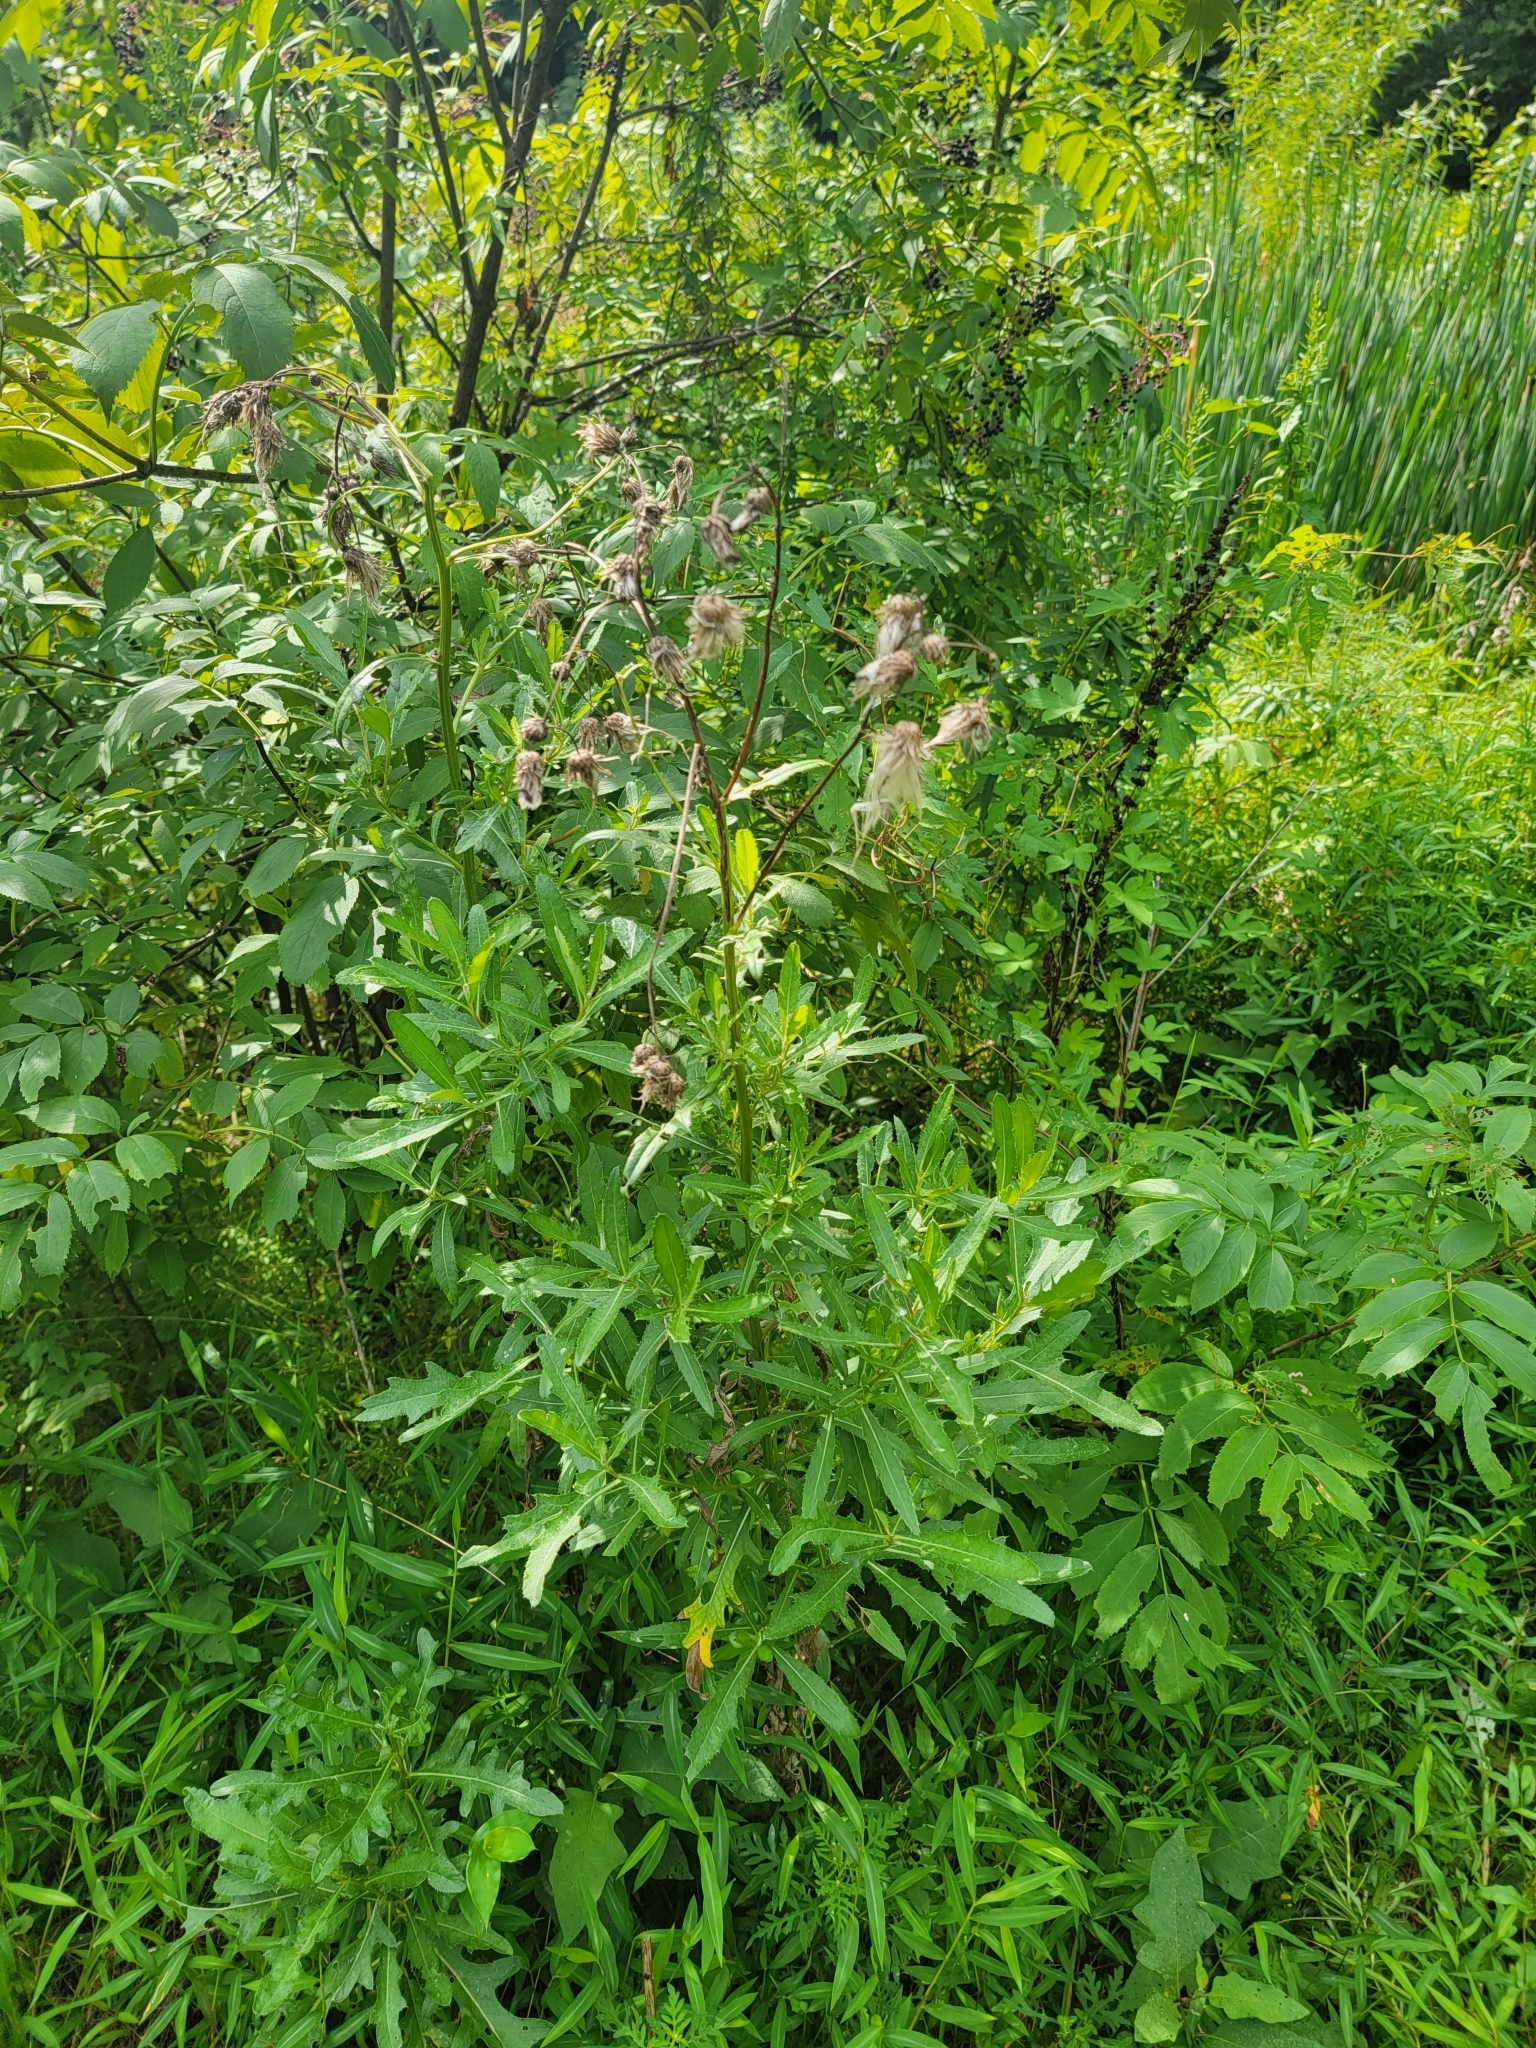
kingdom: Plantae
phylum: Tracheophyta
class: Magnoliopsida
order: Asterales
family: Asteraceae
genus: Cirsium
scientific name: Cirsium arvense
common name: Creeping thistle
